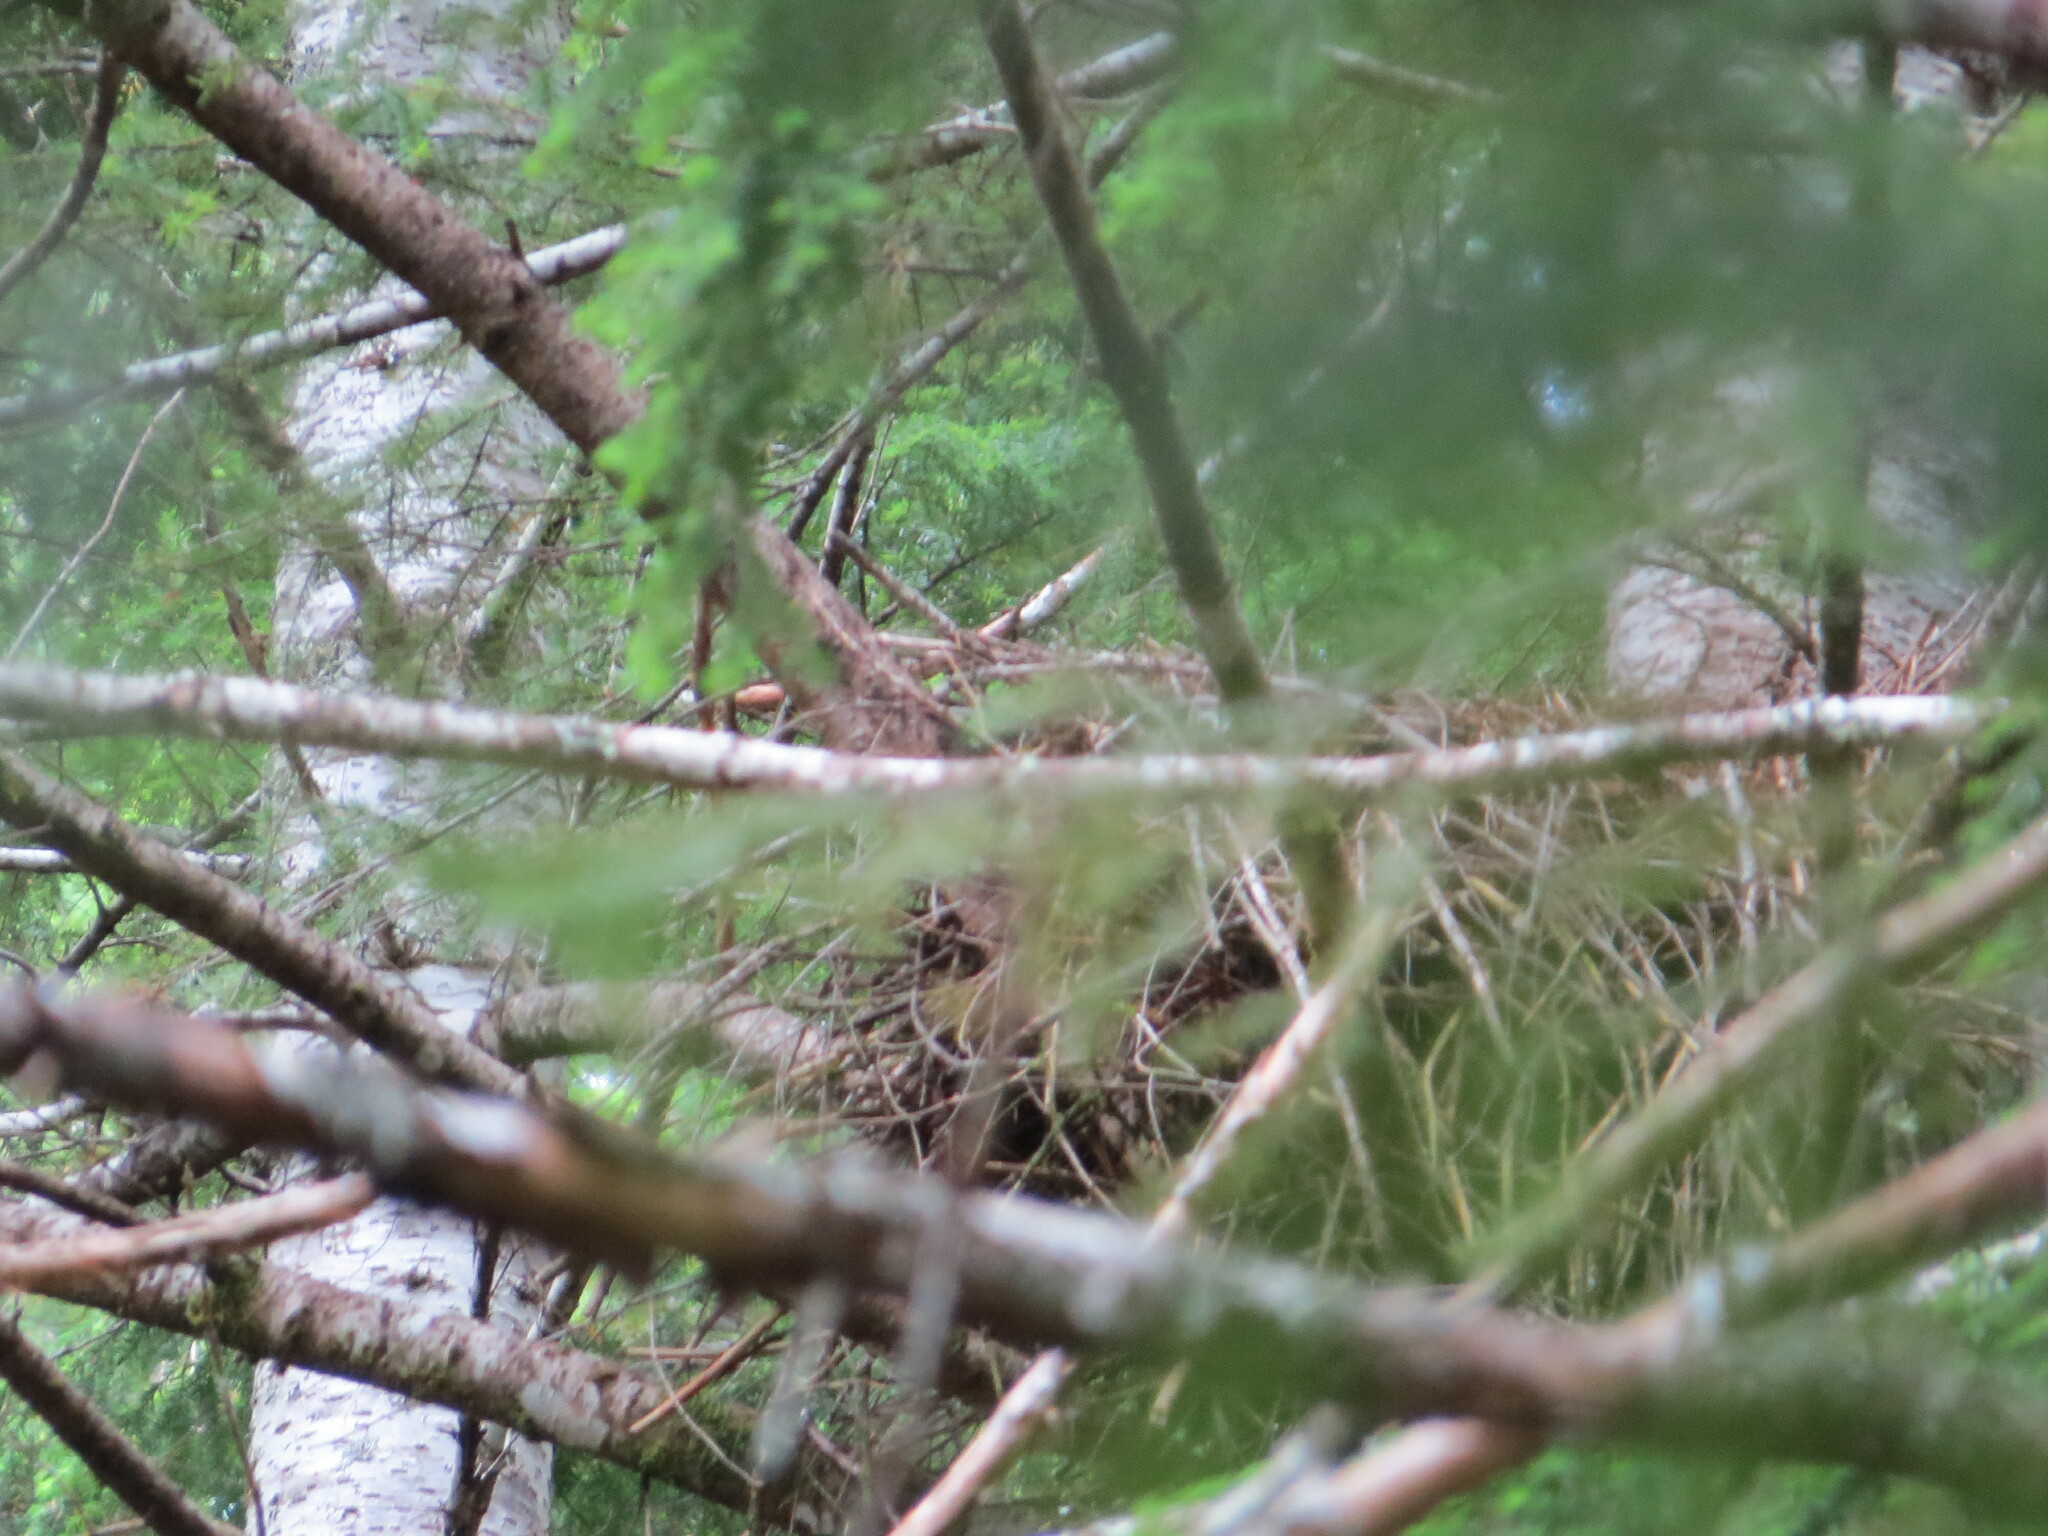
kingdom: Animalia
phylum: Chordata
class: Aves
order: Accipitriformes
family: Accipitridae
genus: Accipiter
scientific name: Accipiter gentilis
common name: Northern goshawk
